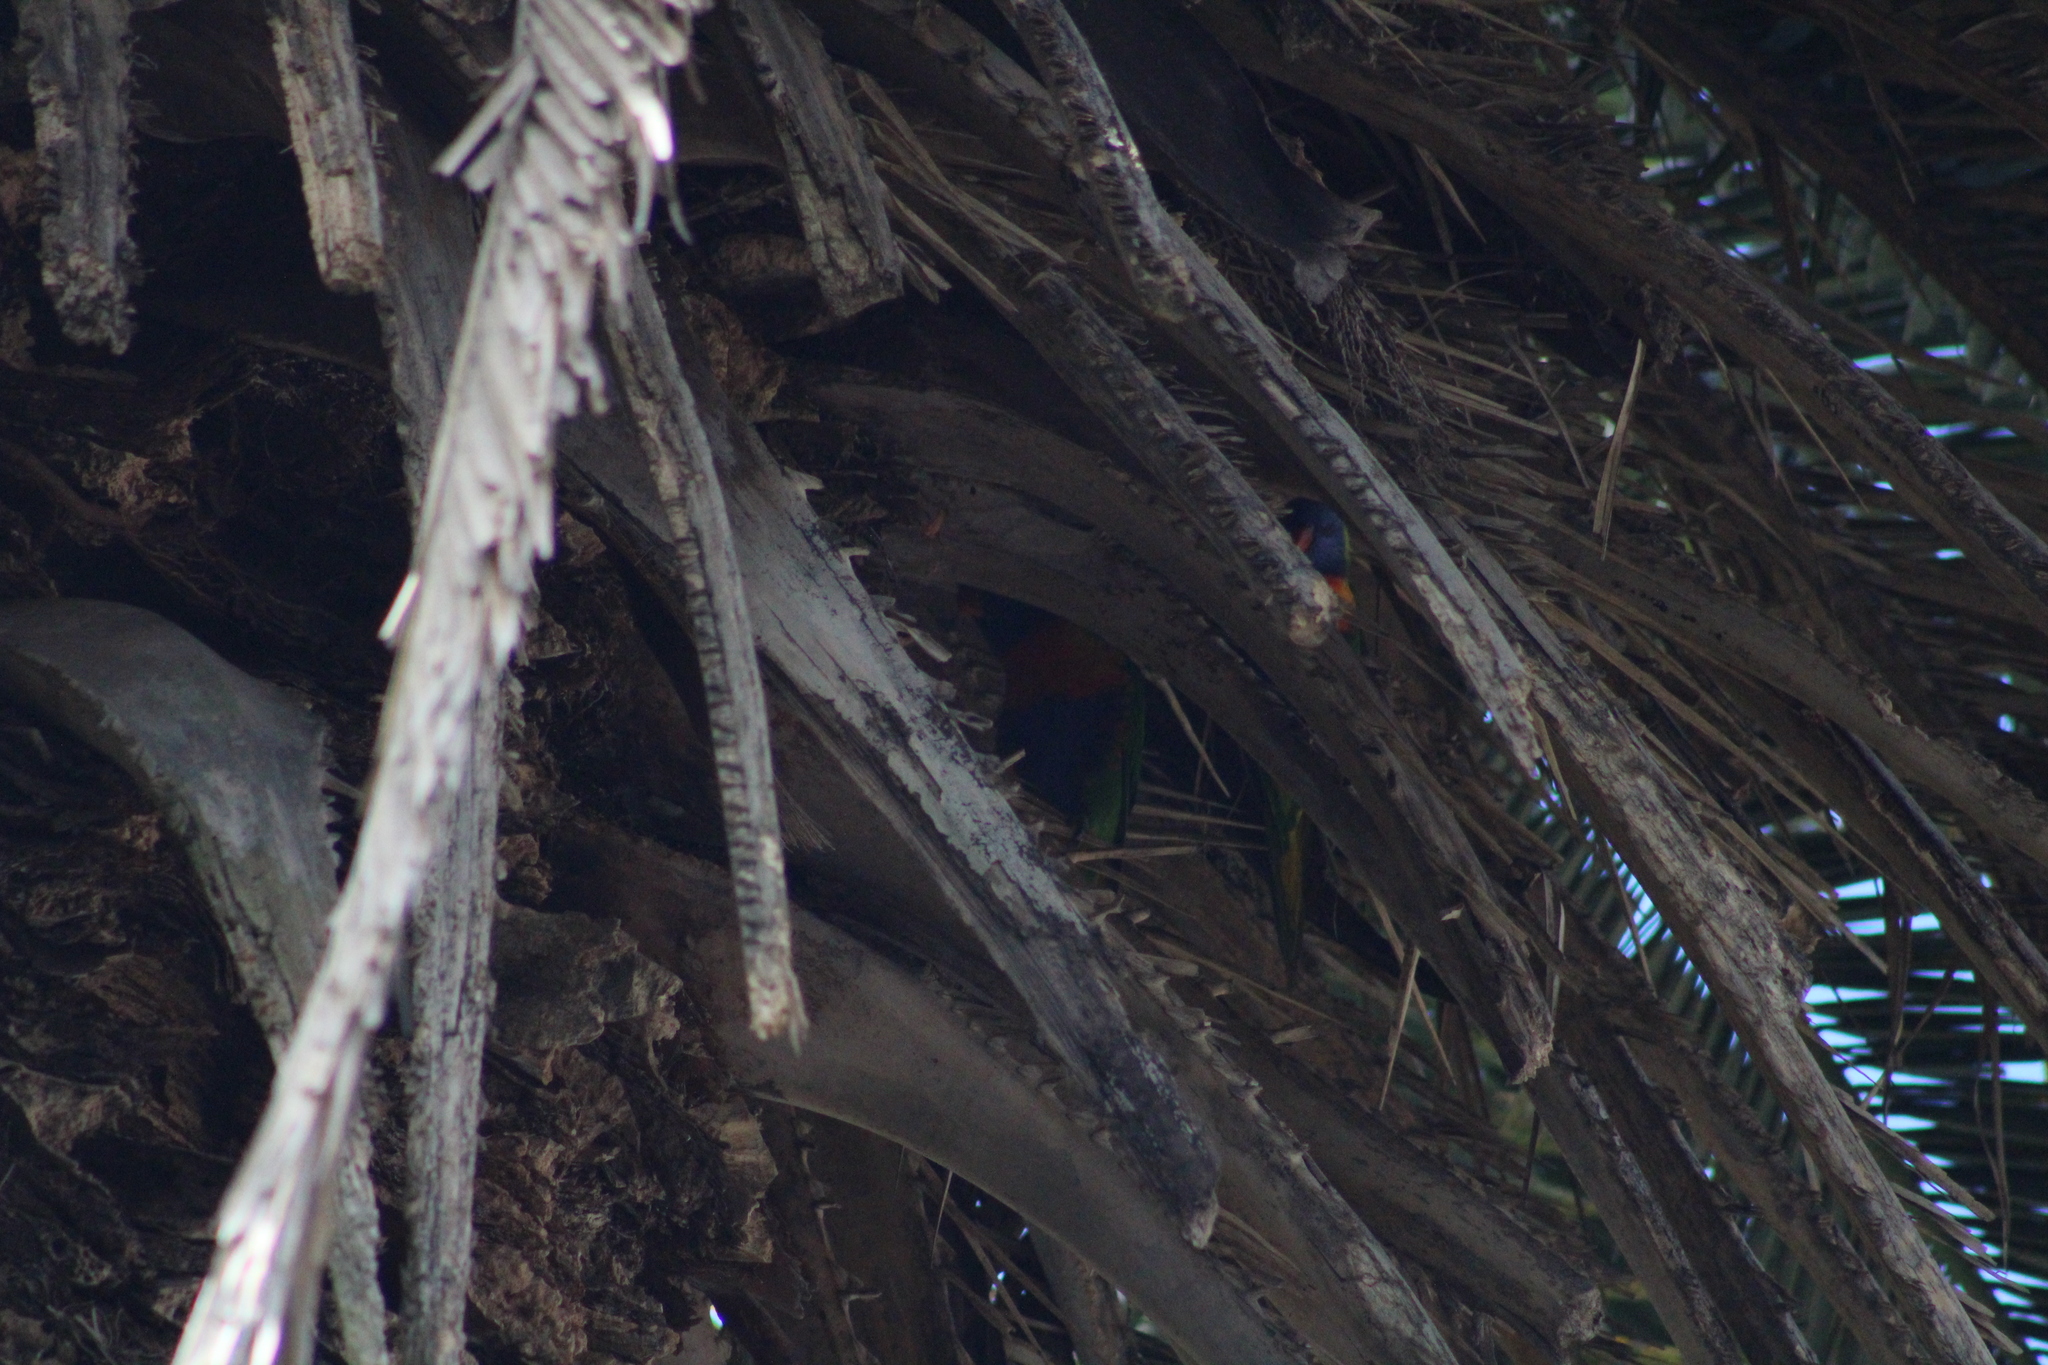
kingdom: Animalia
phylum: Chordata
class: Aves
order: Psittaciformes
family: Psittacidae
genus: Trichoglossus
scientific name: Trichoglossus haematodus
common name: Coconut lorikeet
